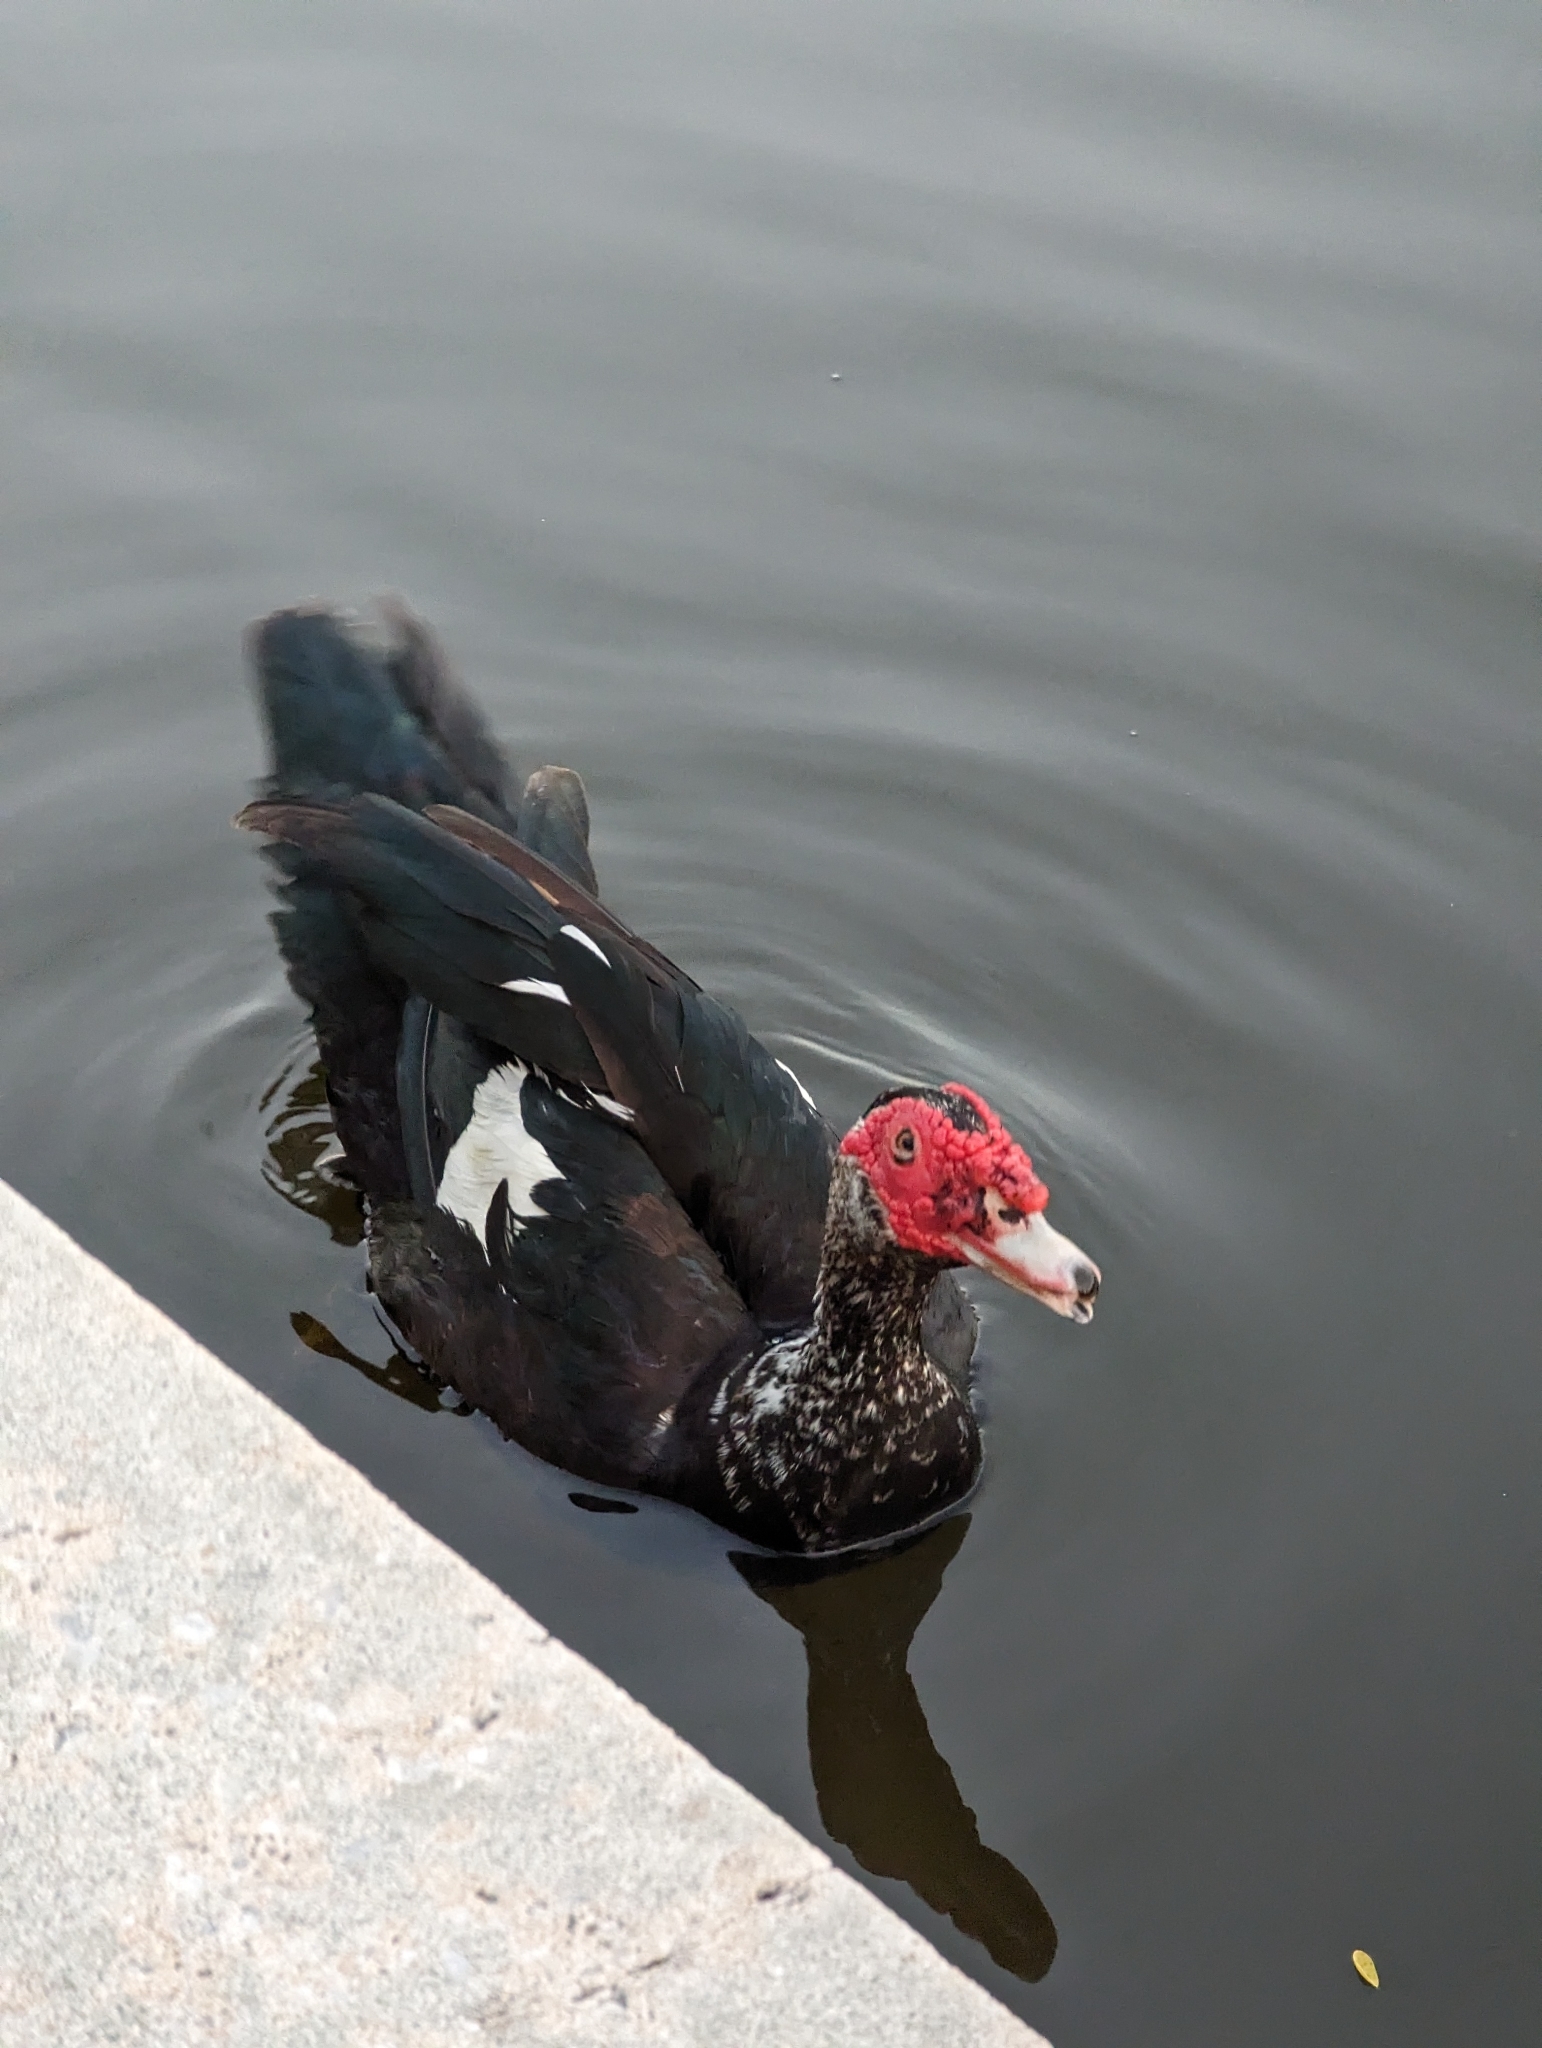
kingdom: Animalia
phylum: Chordata
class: Aves
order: Anseriformes
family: Anatidae
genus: Cairina
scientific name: Cairina moschata
